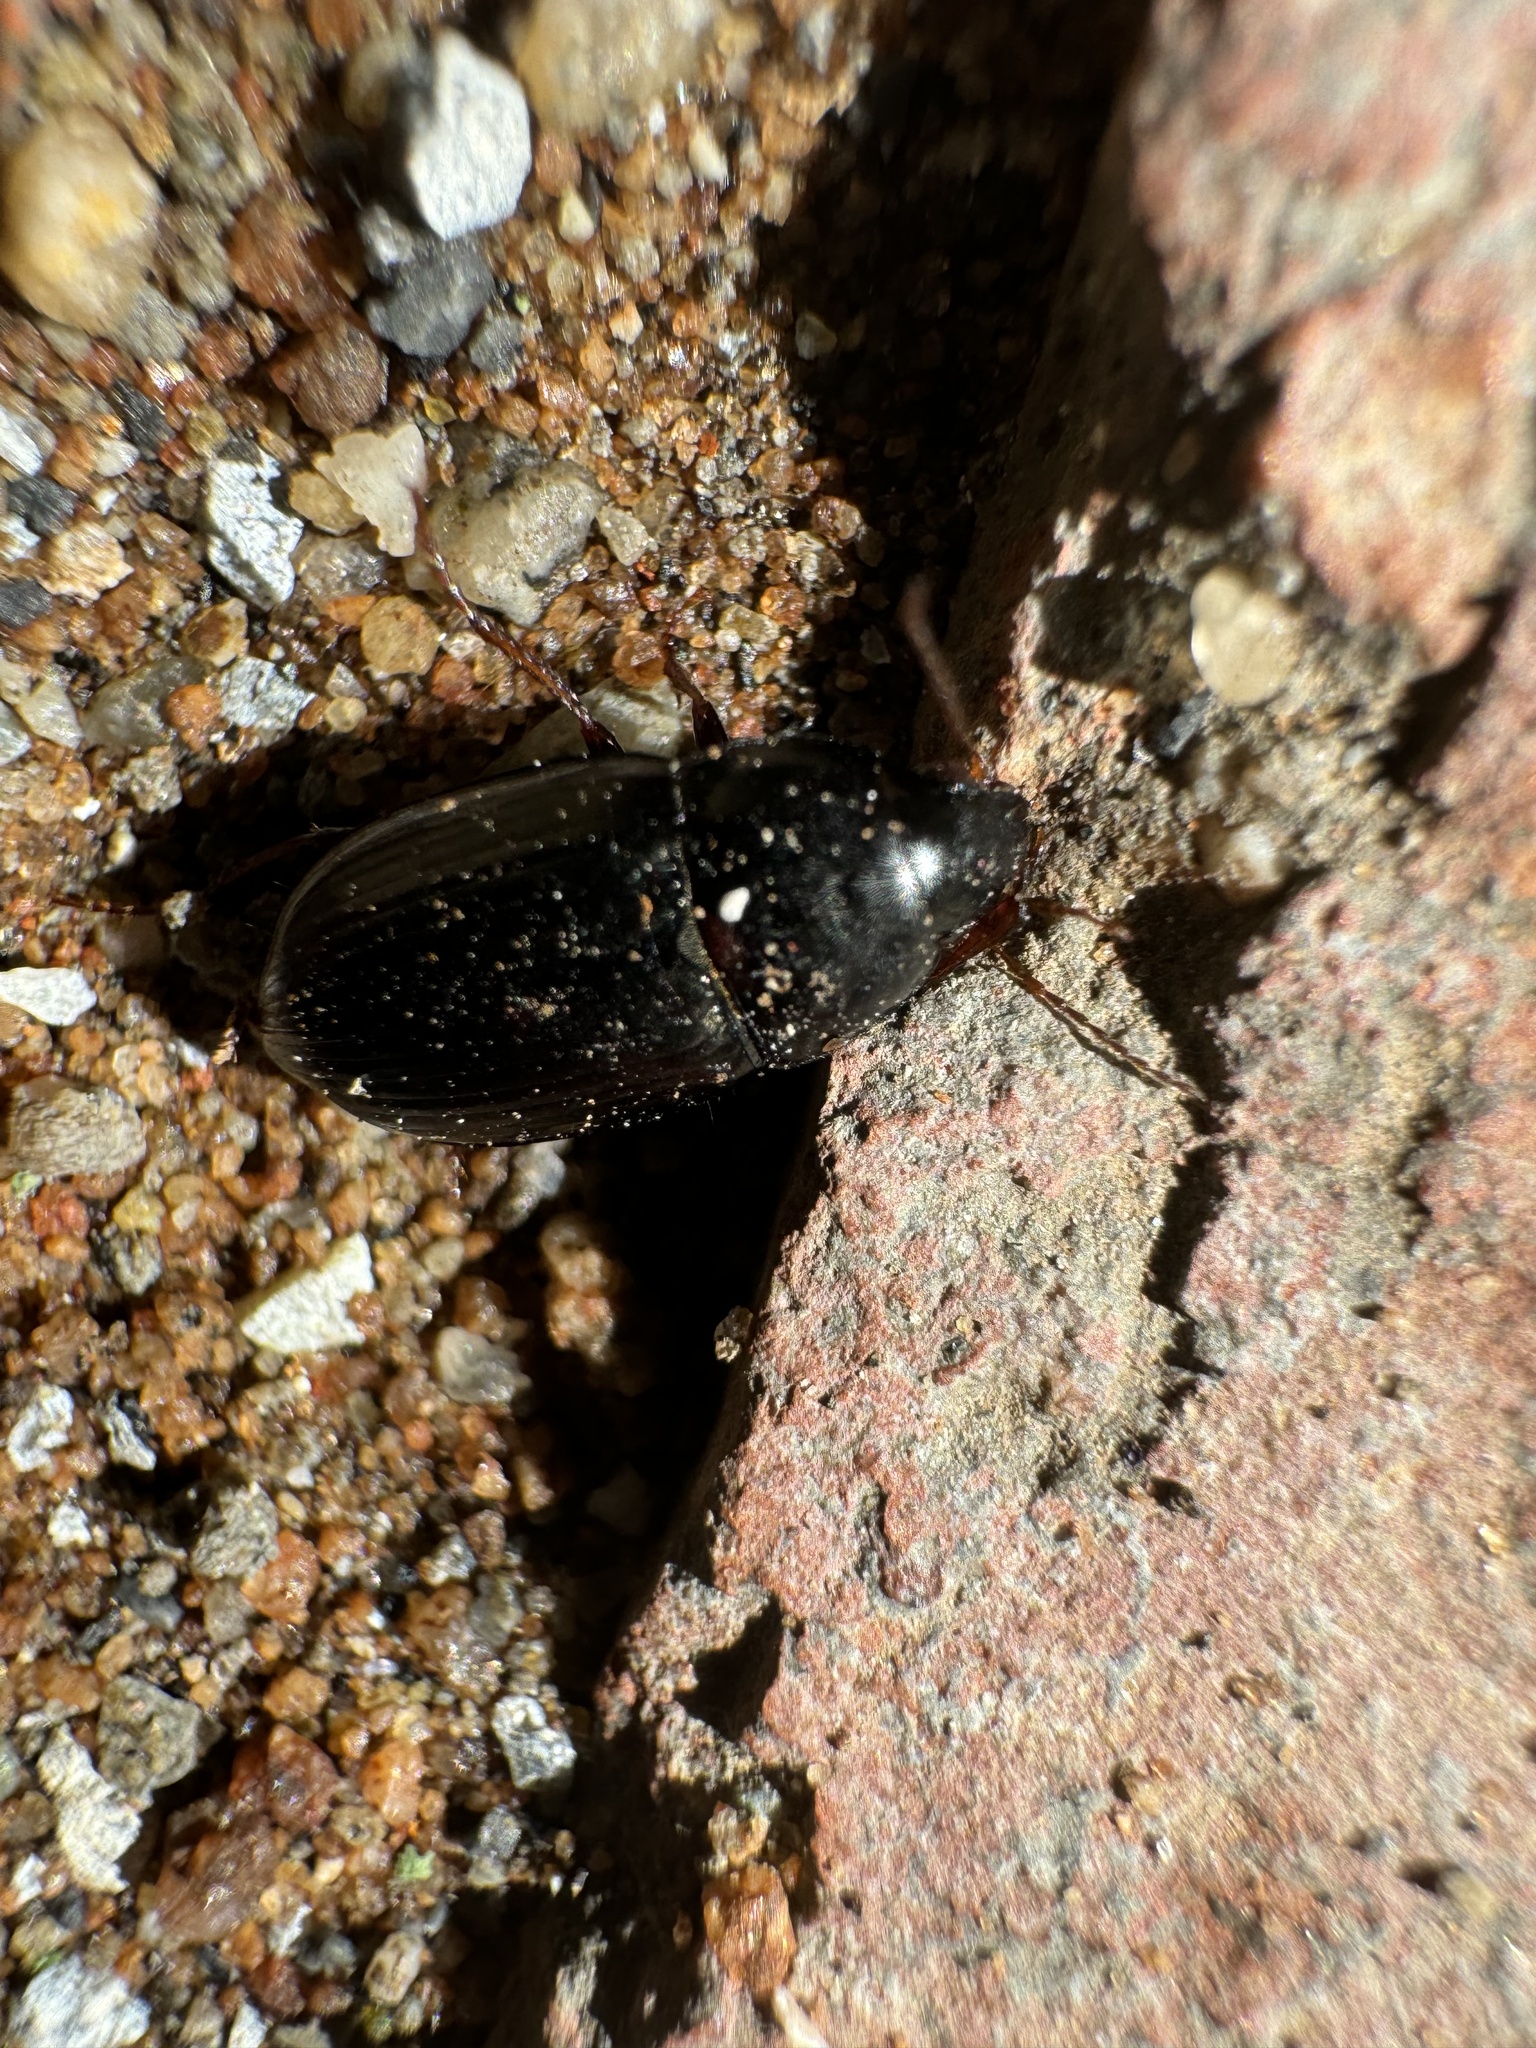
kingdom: Animalia
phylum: Arthropoda
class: Insecta
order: Coleoptera
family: Carabidae
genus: Amara
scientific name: Amara scitula
